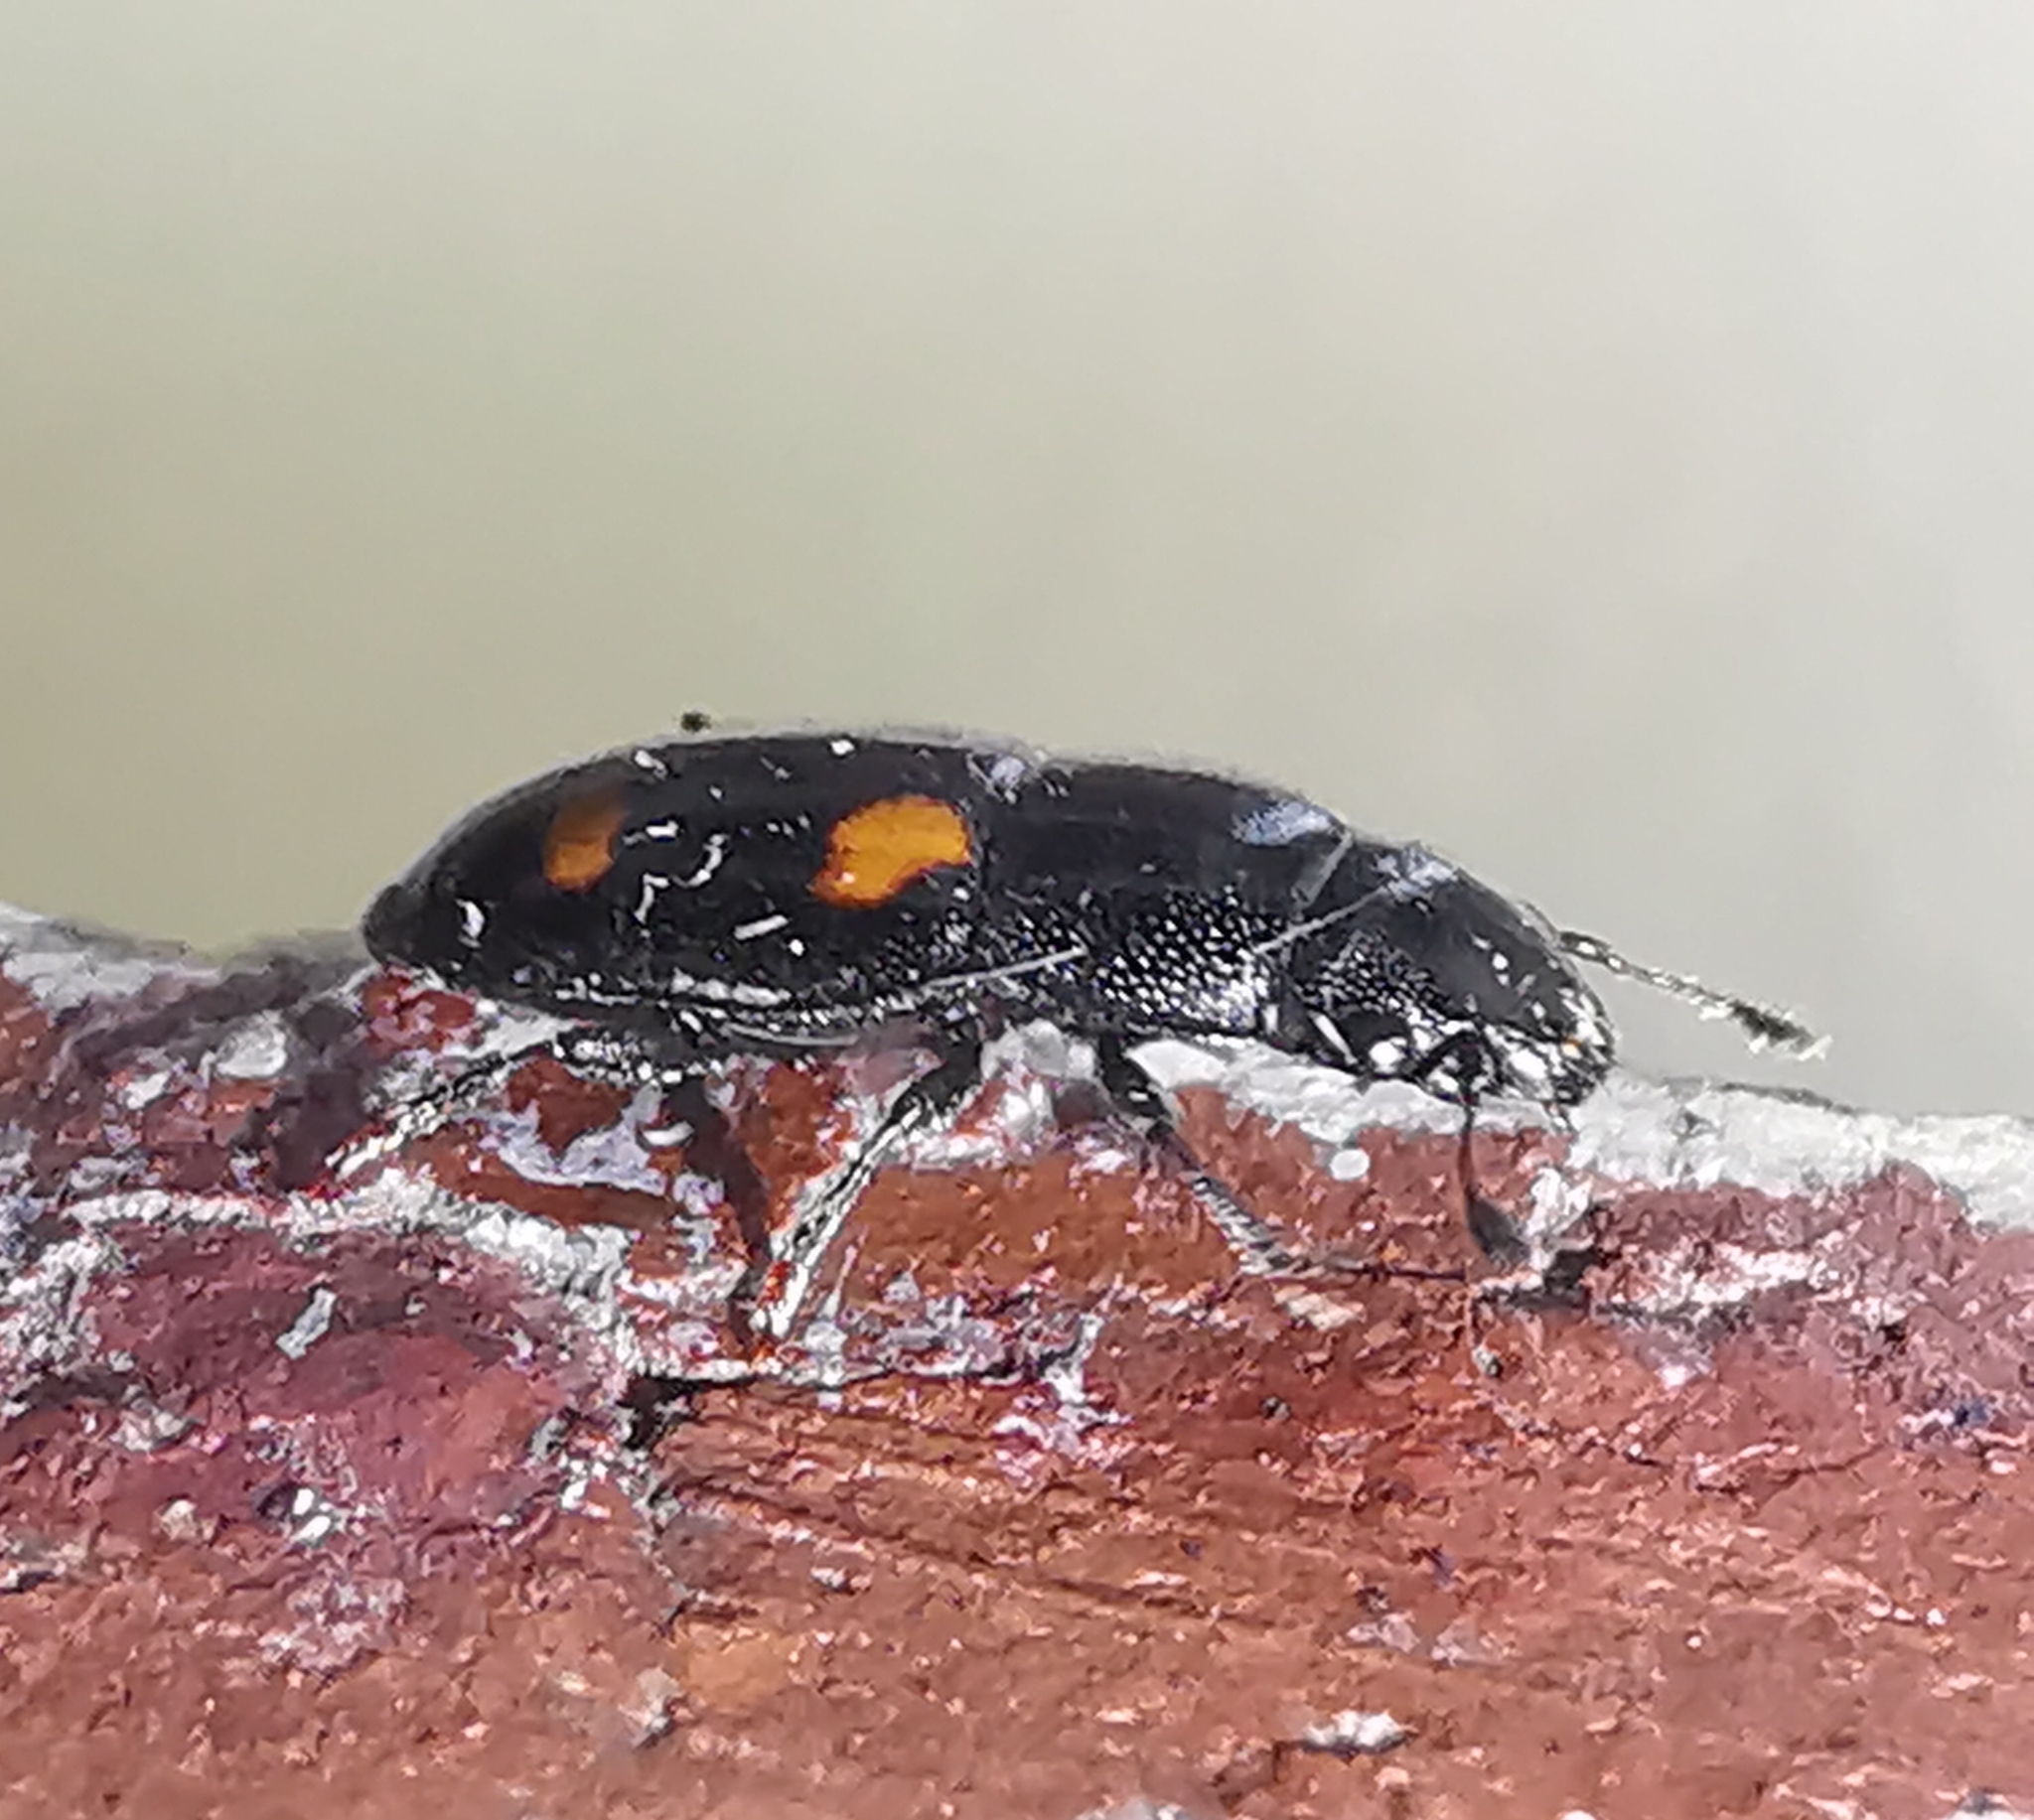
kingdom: Animalia
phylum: Arthropoda
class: Insecta
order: Coleoptera
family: Nitidulidae
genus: Glischrochilus
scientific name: Glischrochilus hortensis
